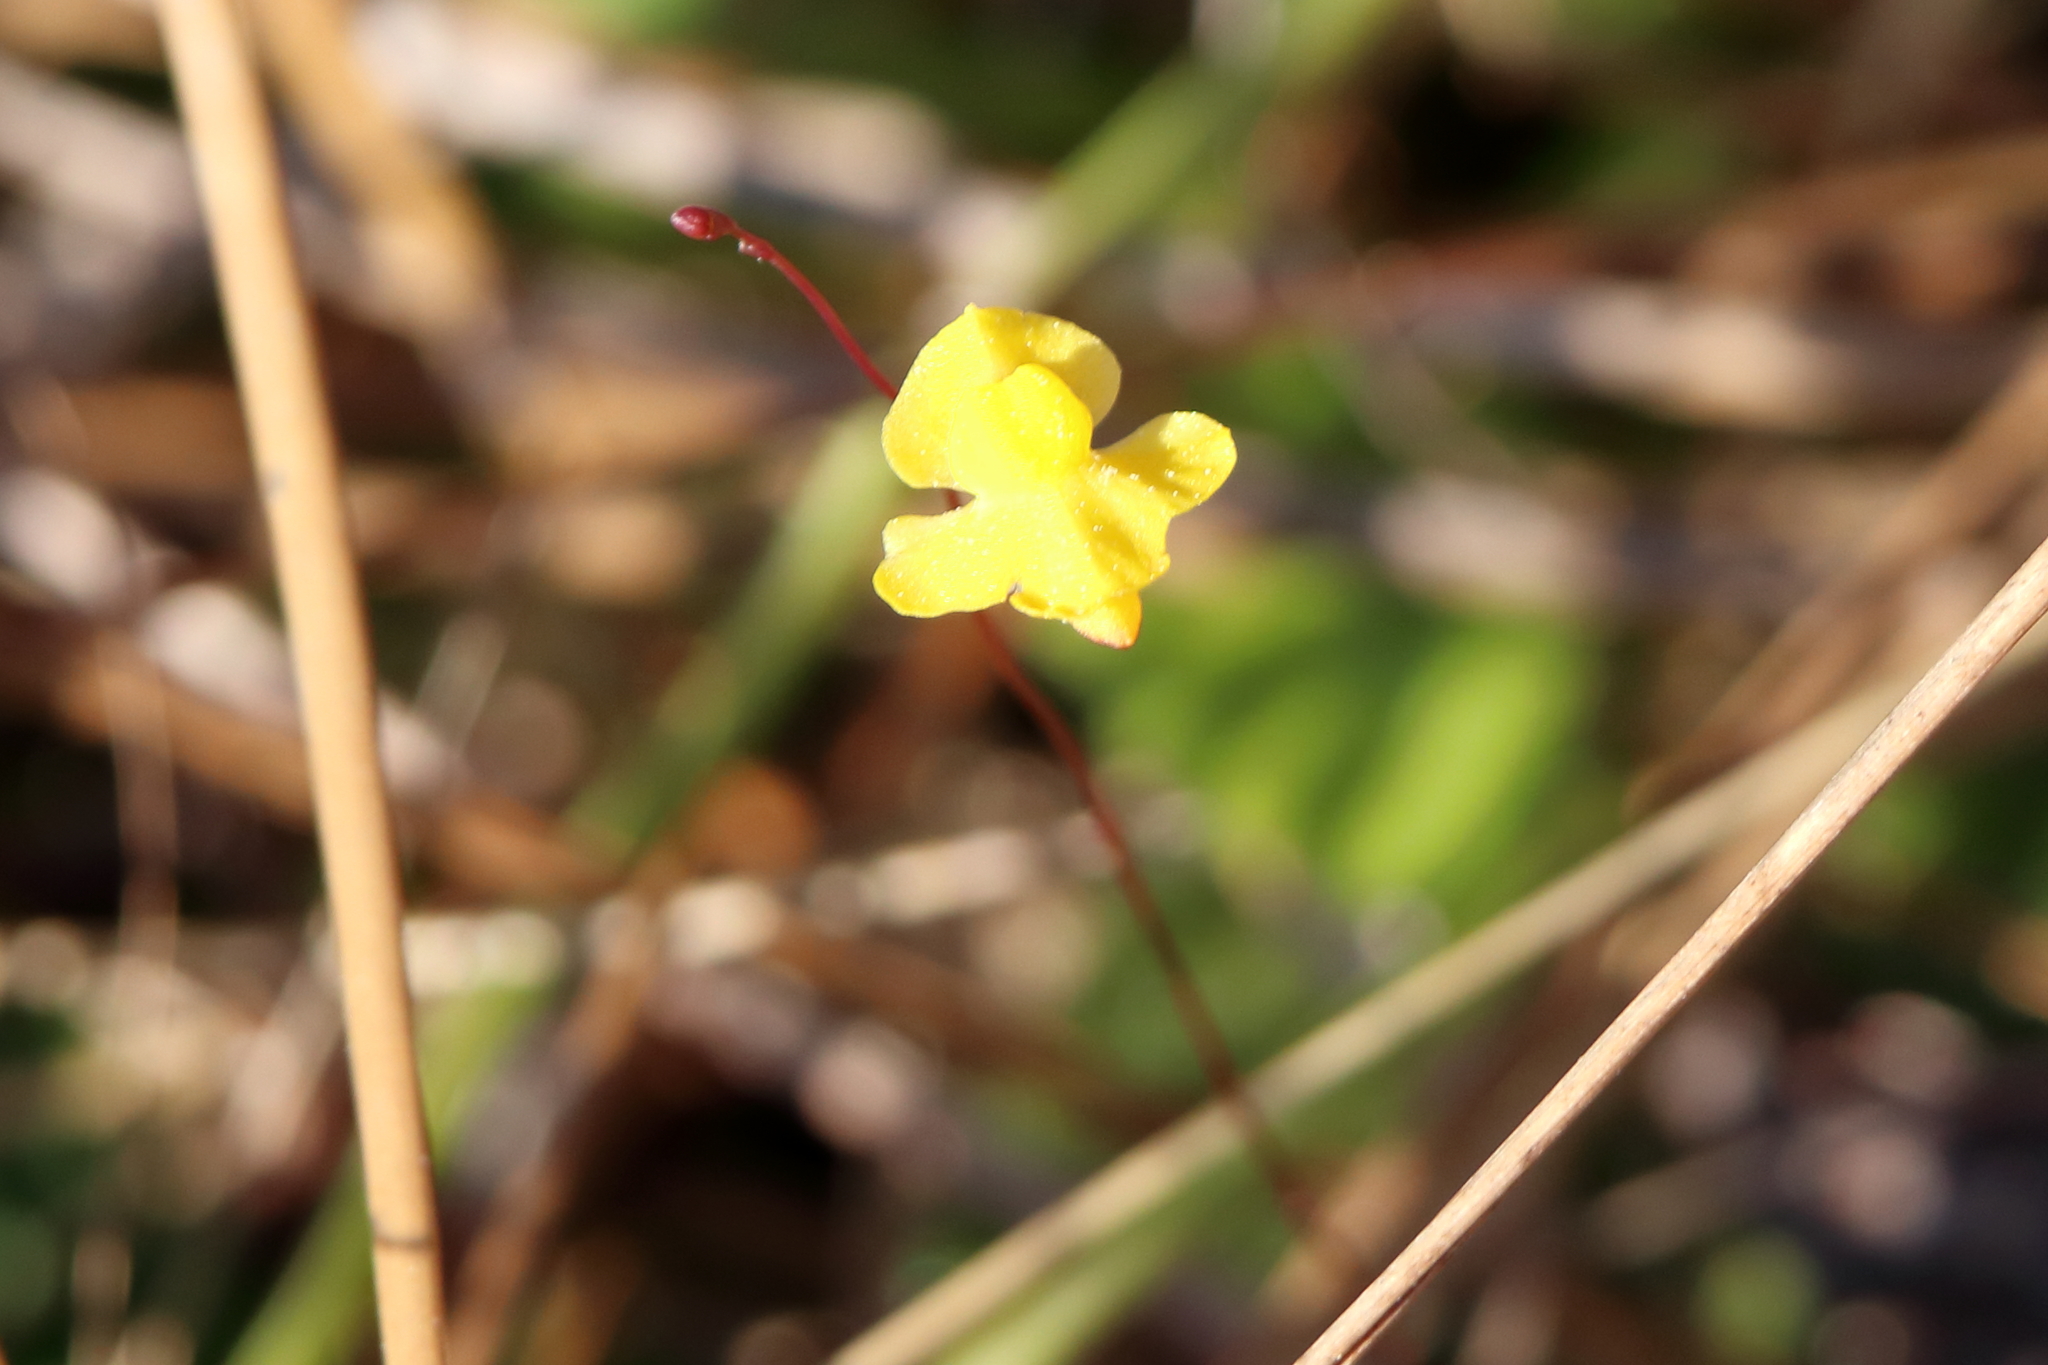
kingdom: Plantae
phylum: Tracheophyta
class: Magnoliopsida
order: Lamiales
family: Lentibulariaceae
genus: Utricularia
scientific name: Utricularia subulata
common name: Tiny bladderwort
